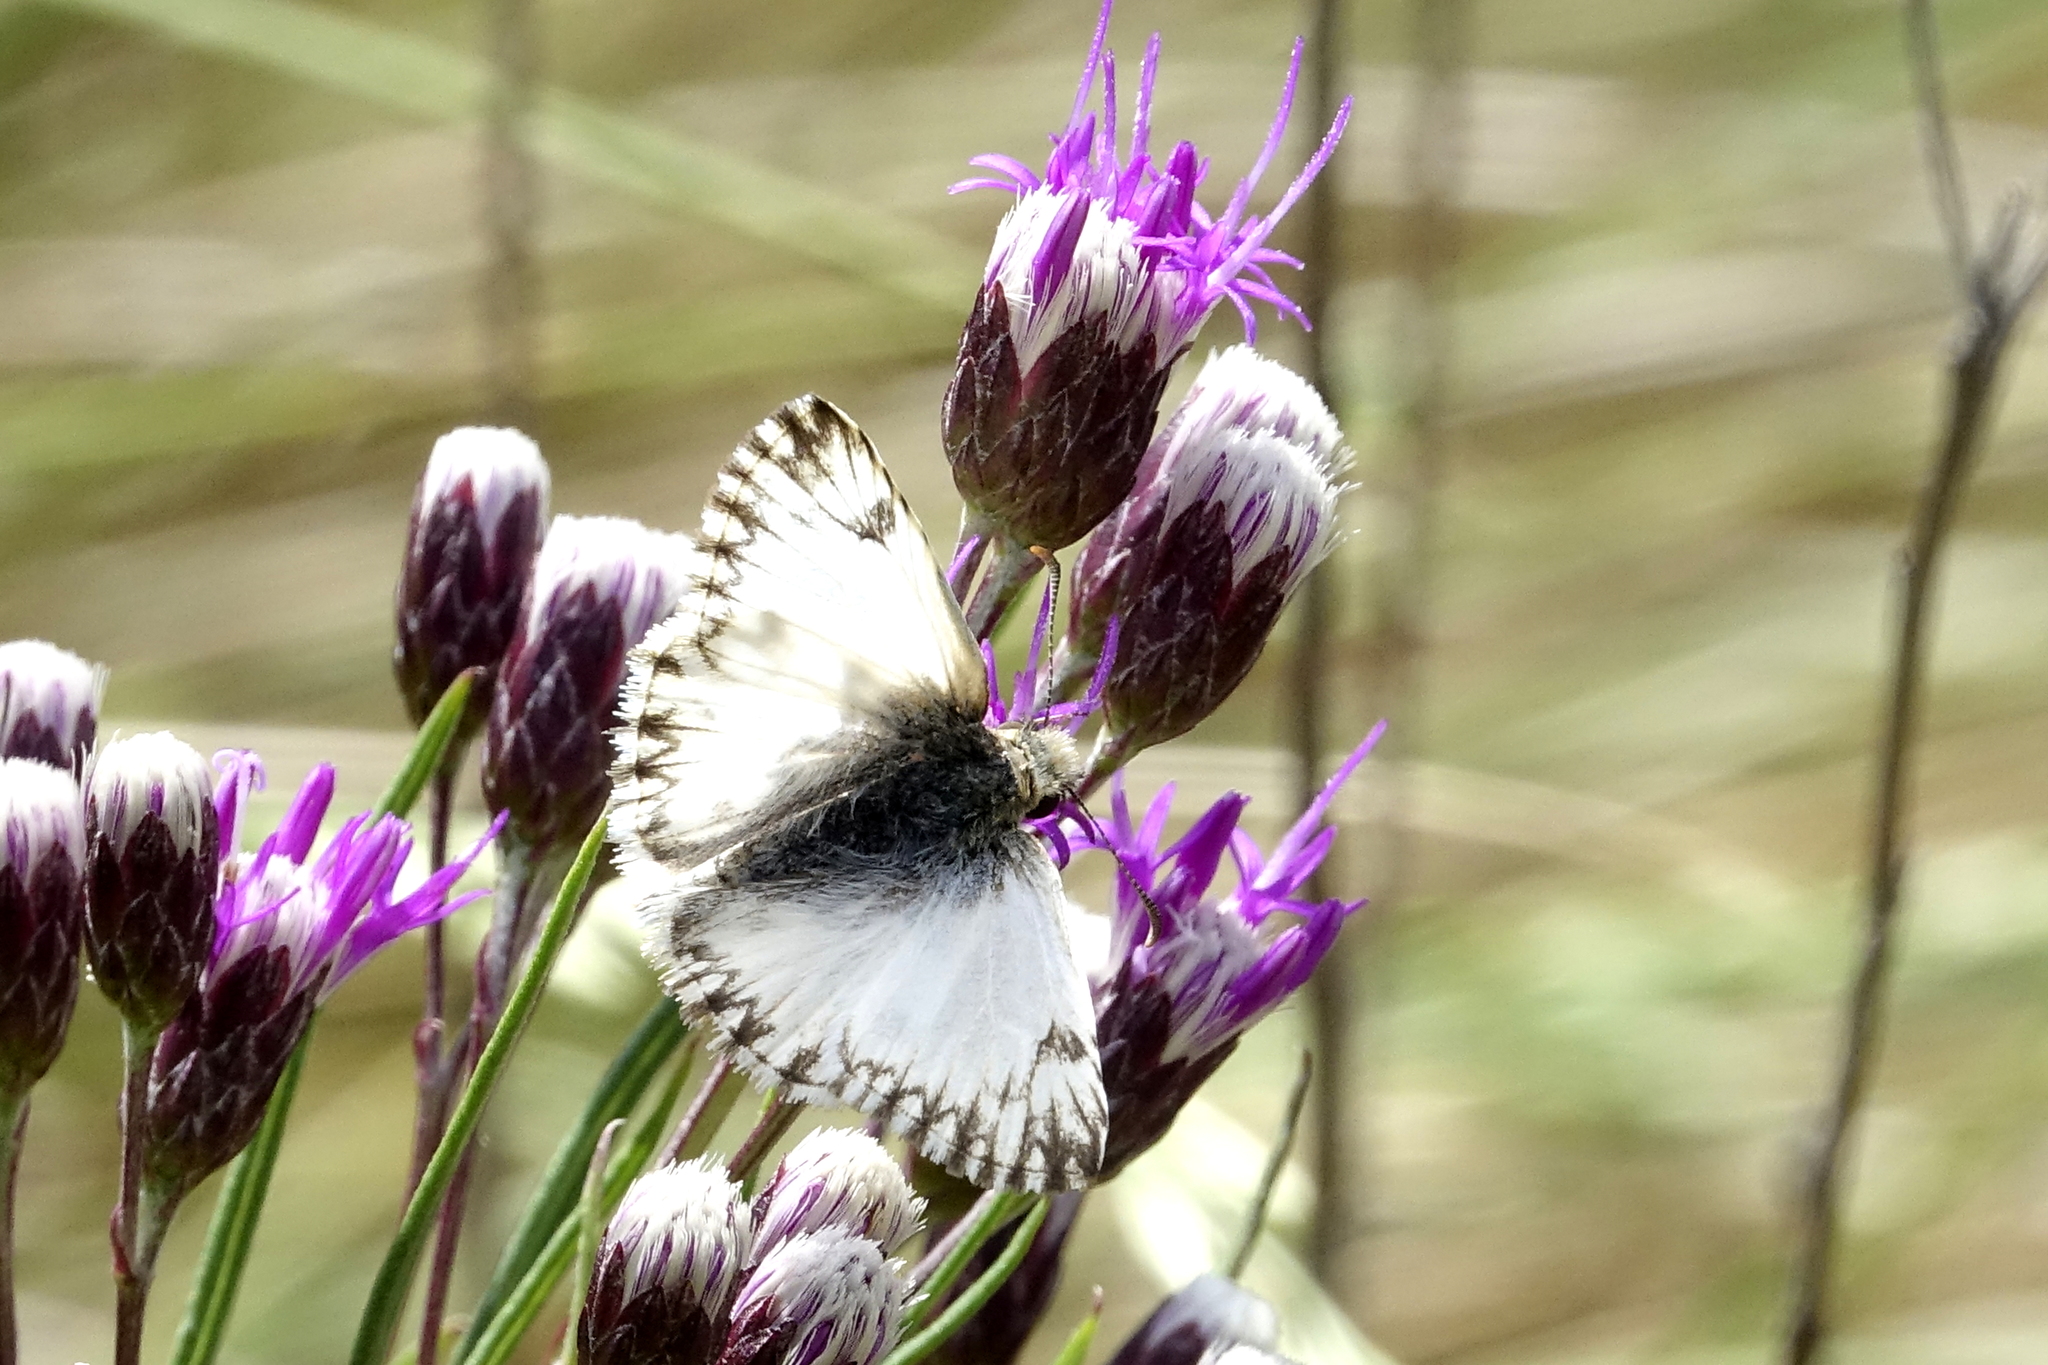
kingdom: Animalia
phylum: Arthropoda
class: Insecta
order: Lepidoptera
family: Hesperiidae
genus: Heliopetes
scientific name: Heliopetes omrina
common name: Stained white-skipper
